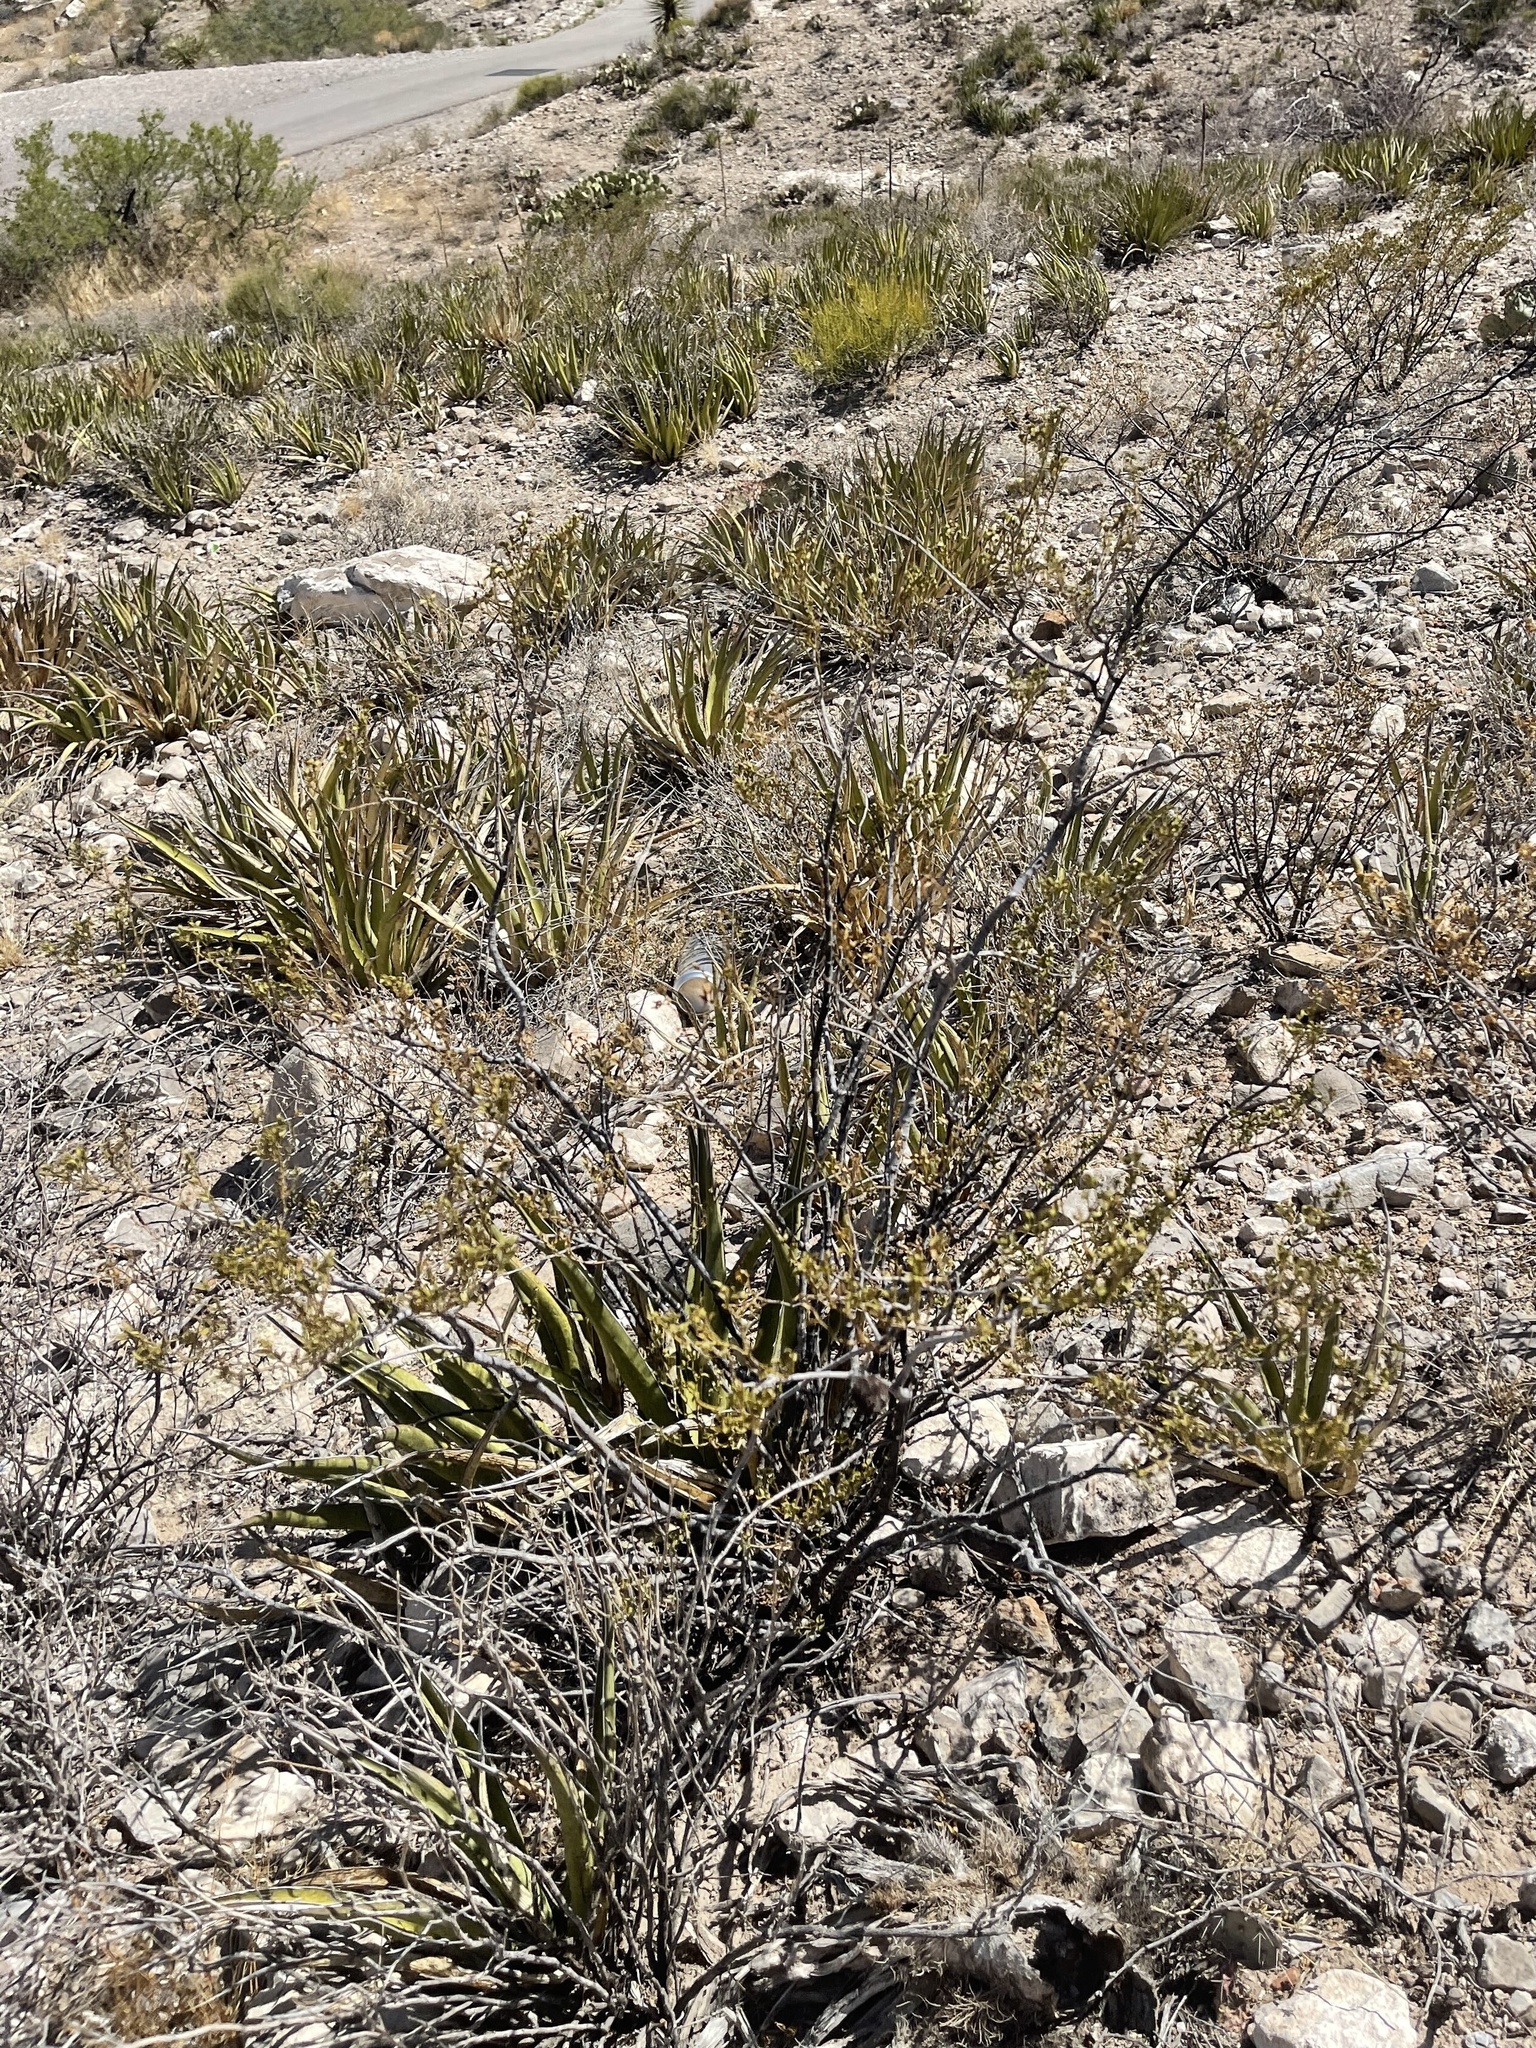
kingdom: Plantae
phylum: Tracheophyta
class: Magnoliopsida
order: Zygophyllales
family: Zygophyllaceae
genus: Larrea
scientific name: Larrea tridentata
